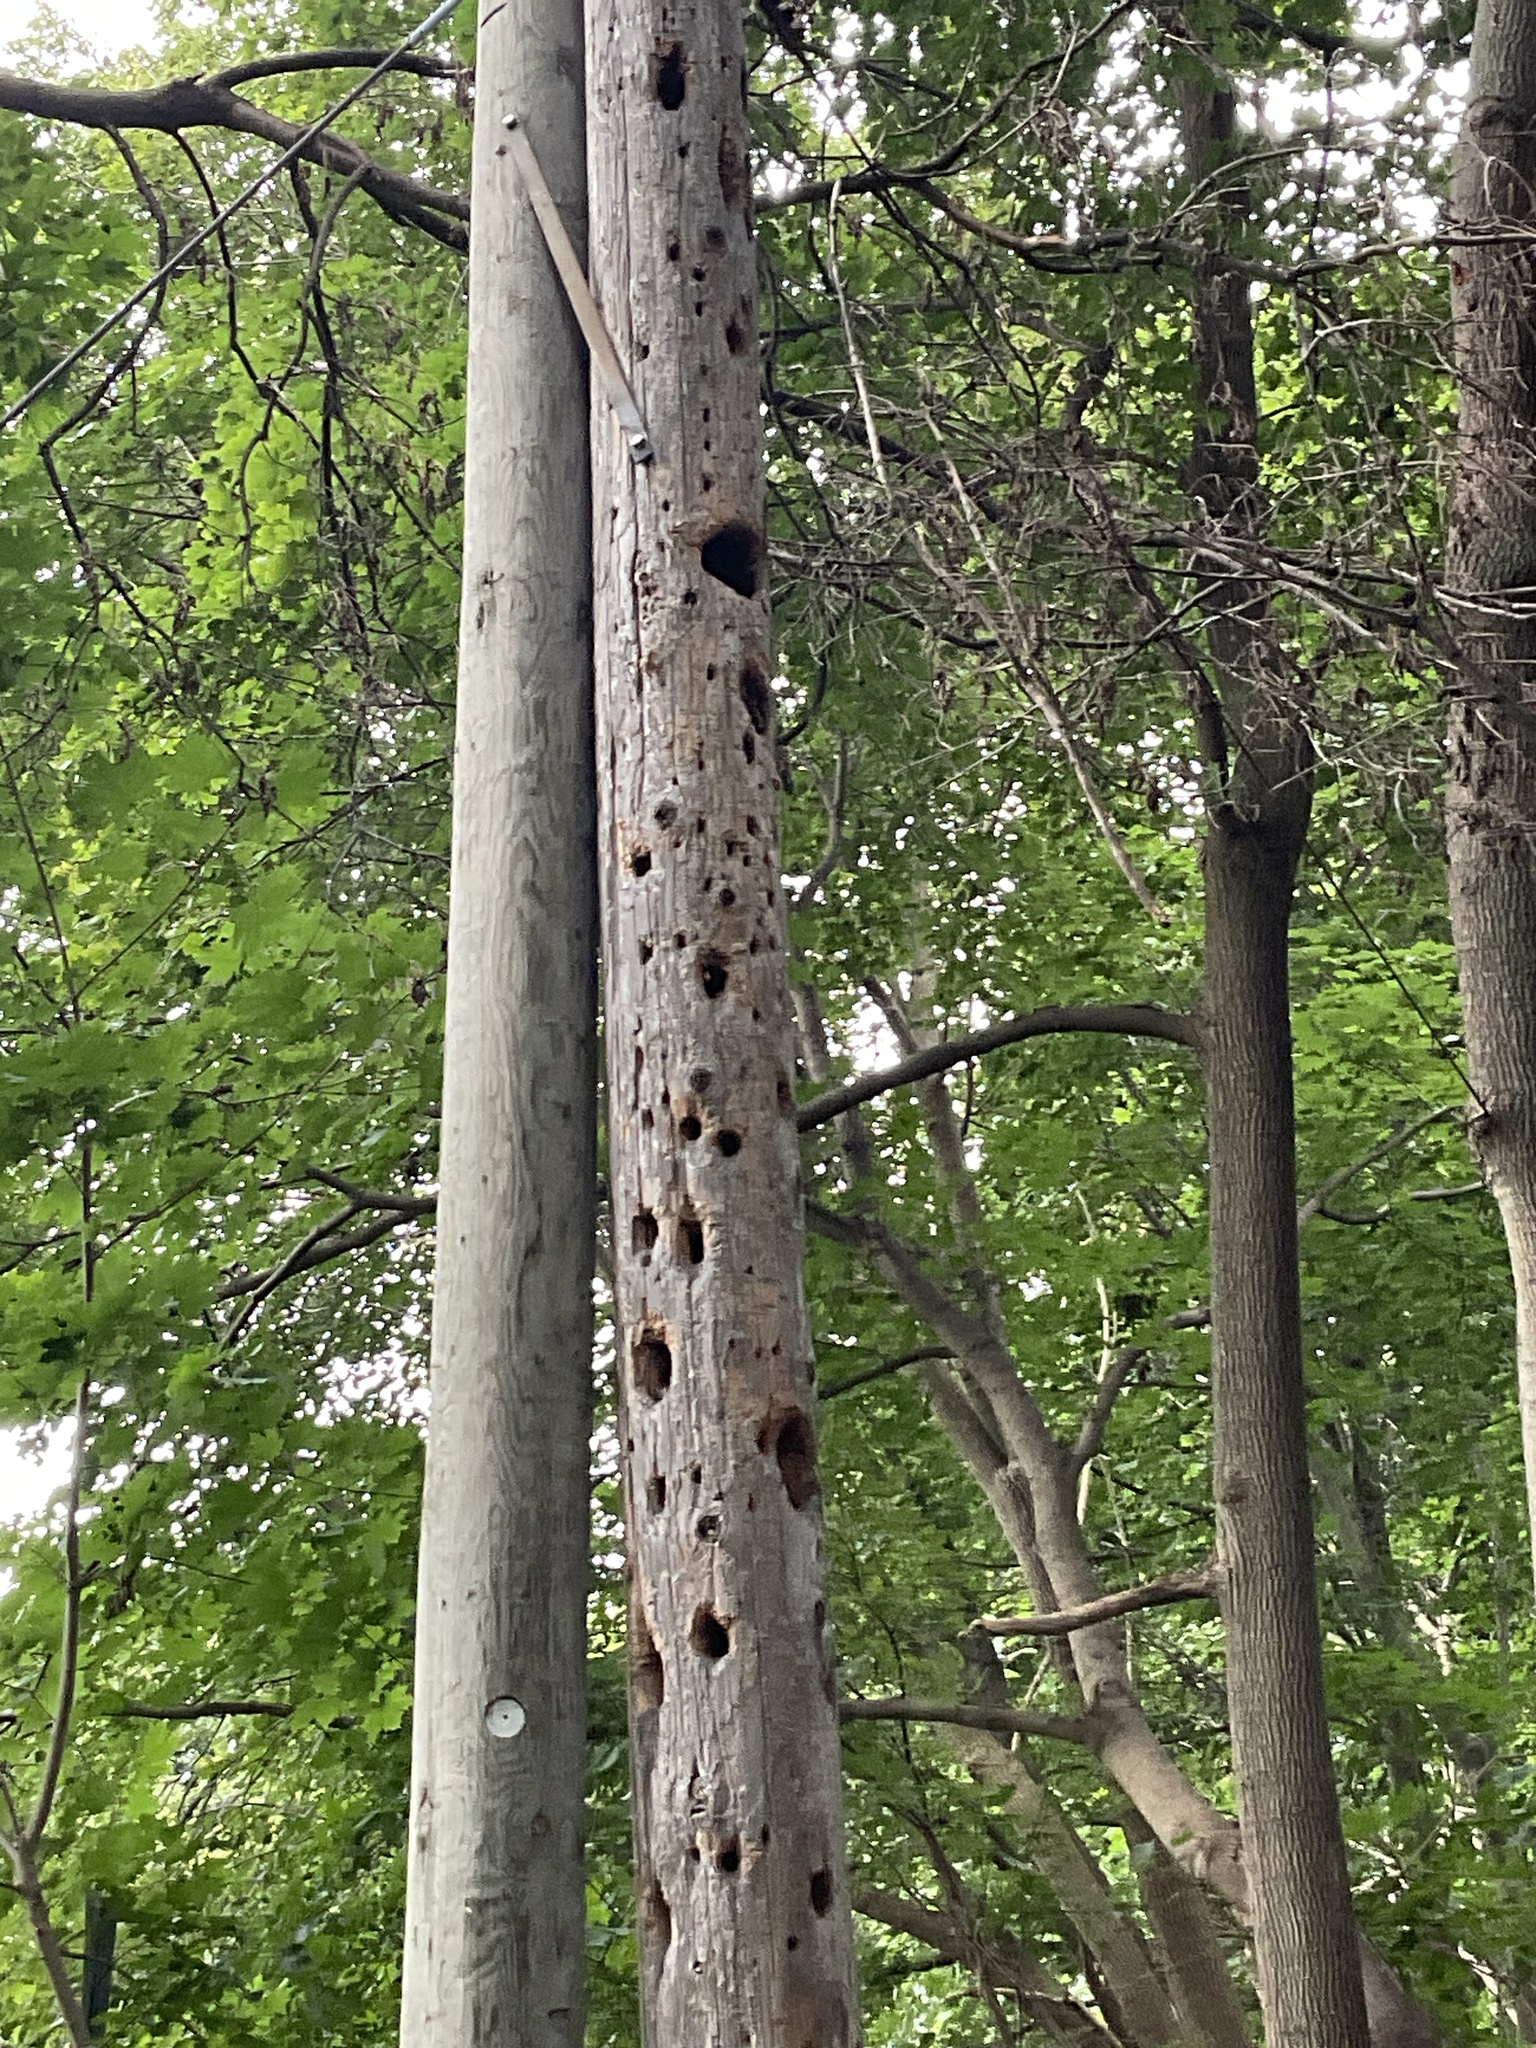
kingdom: Animalia
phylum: Chordata
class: Aves
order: Piciformes
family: Picidae
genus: Dryocopus
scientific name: Dryocopus pileatus
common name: Pileated woodpecker
